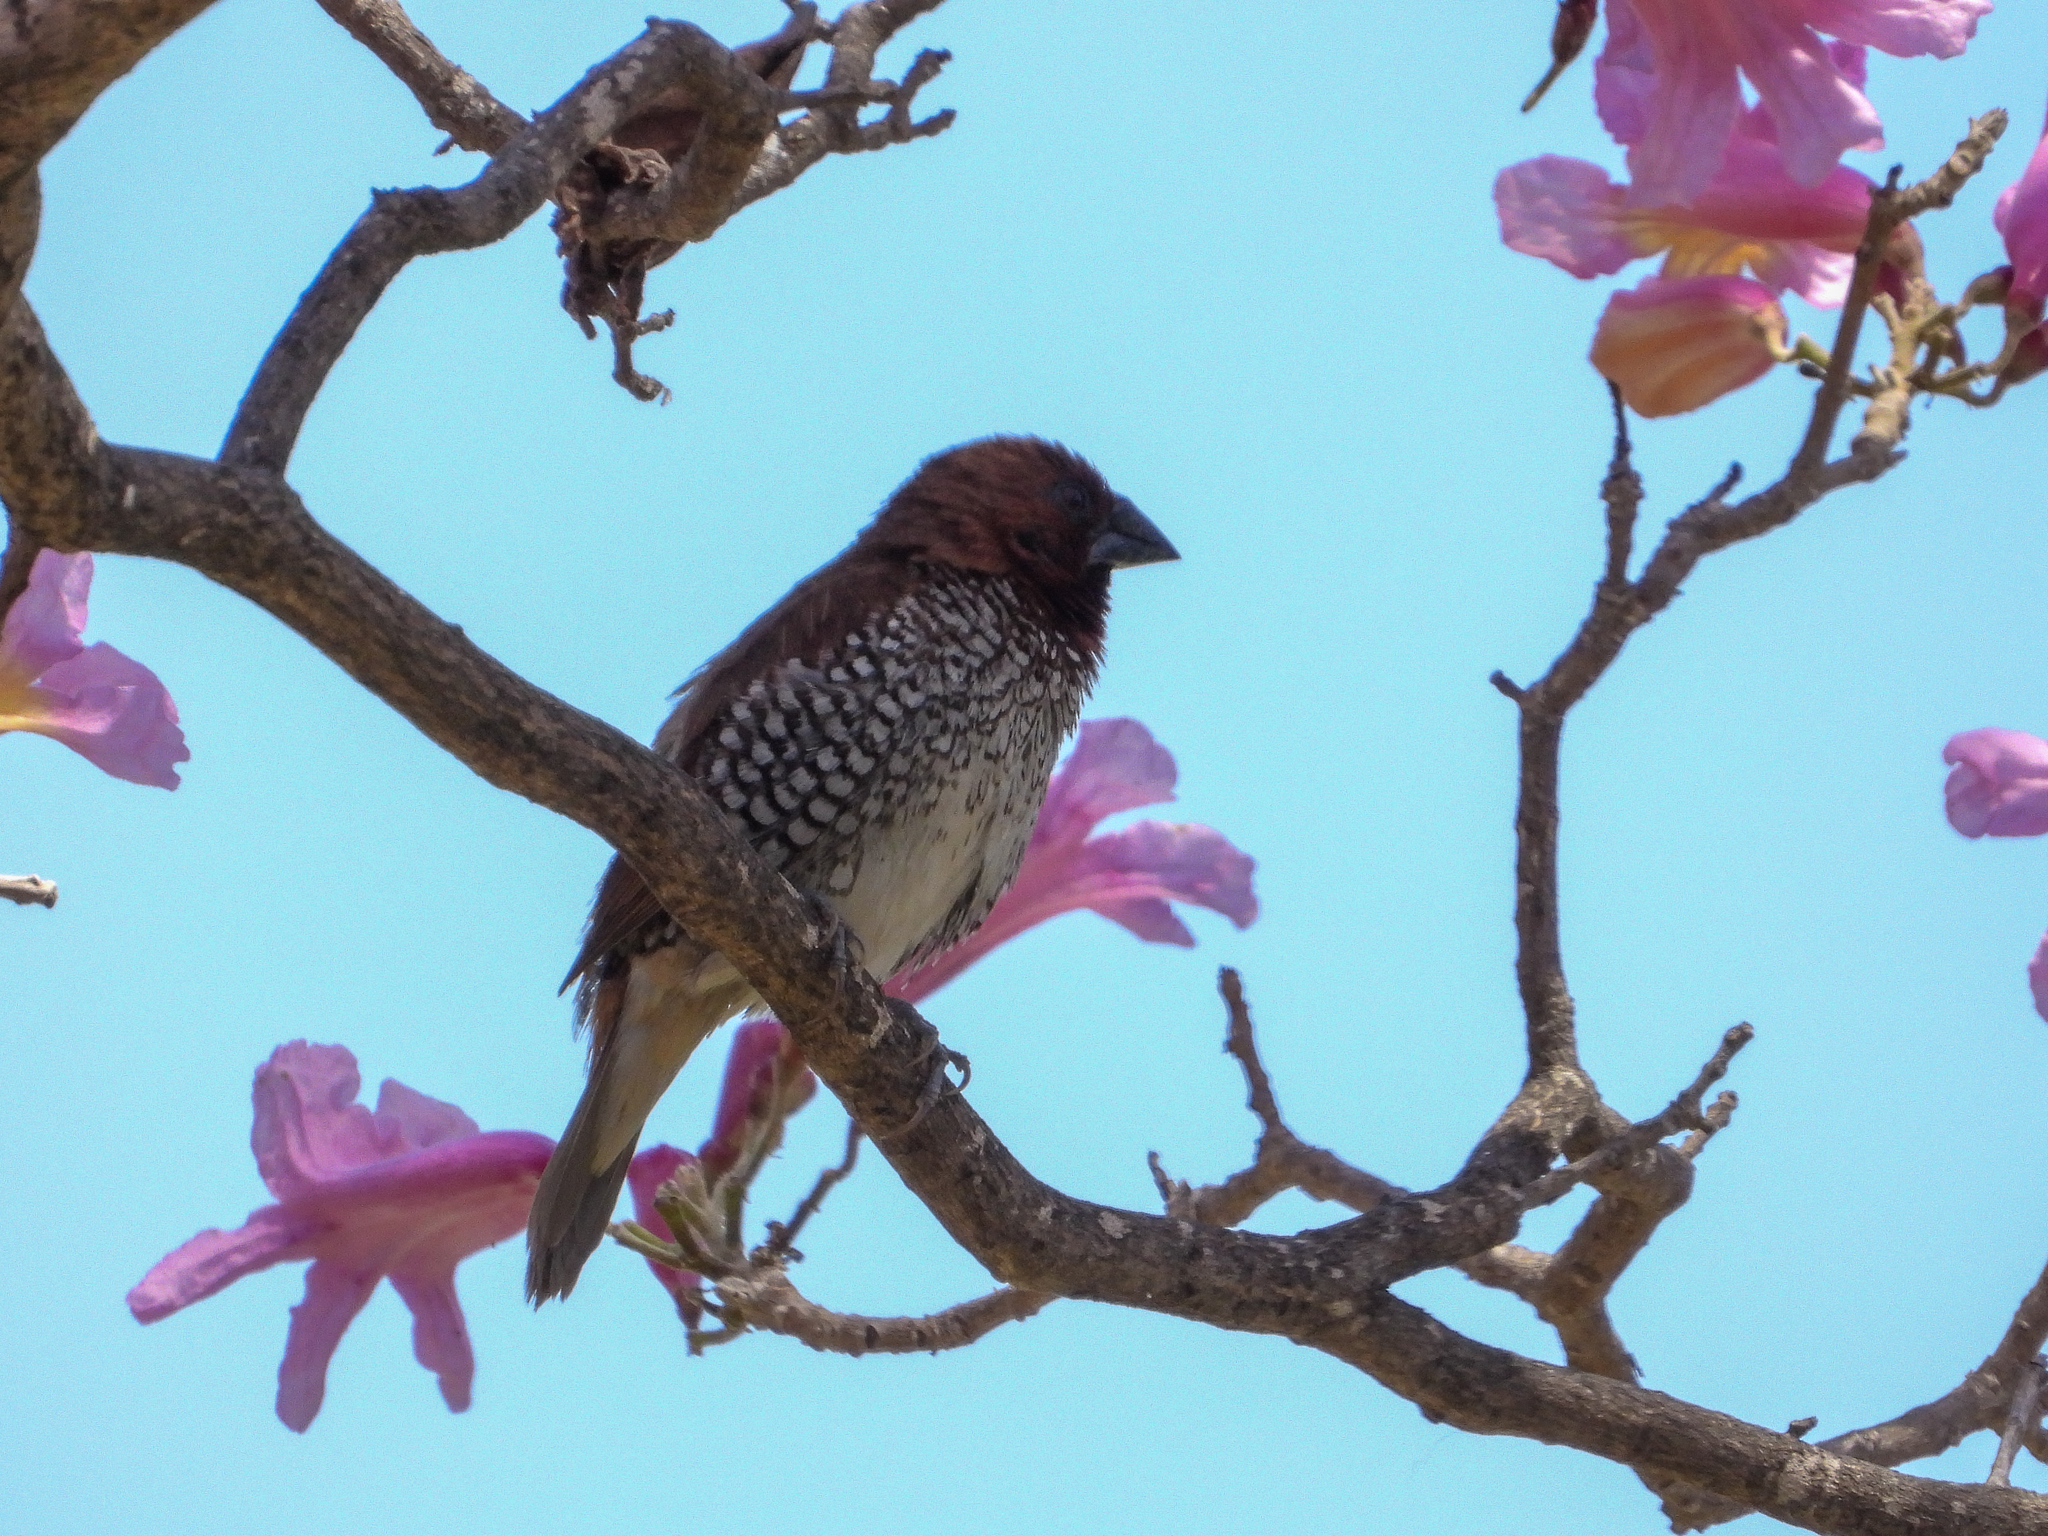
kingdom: Animalia
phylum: Chordata
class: Aves
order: Passeriformes
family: Estrildidae
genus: Lonchura
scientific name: Lonchura punctulata
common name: Scaly-breasted munia
